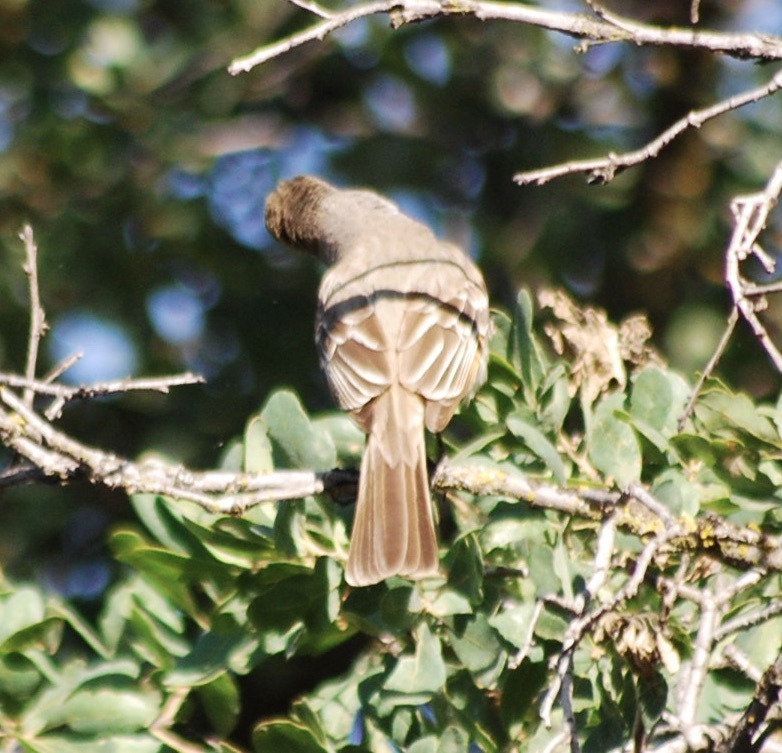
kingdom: Animalia
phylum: Chordata
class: Aves
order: Passeriformes
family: Tyrannidae
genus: Myiarchus
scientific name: Myiarchus cinerascens
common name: Ash-throated flycatcher
